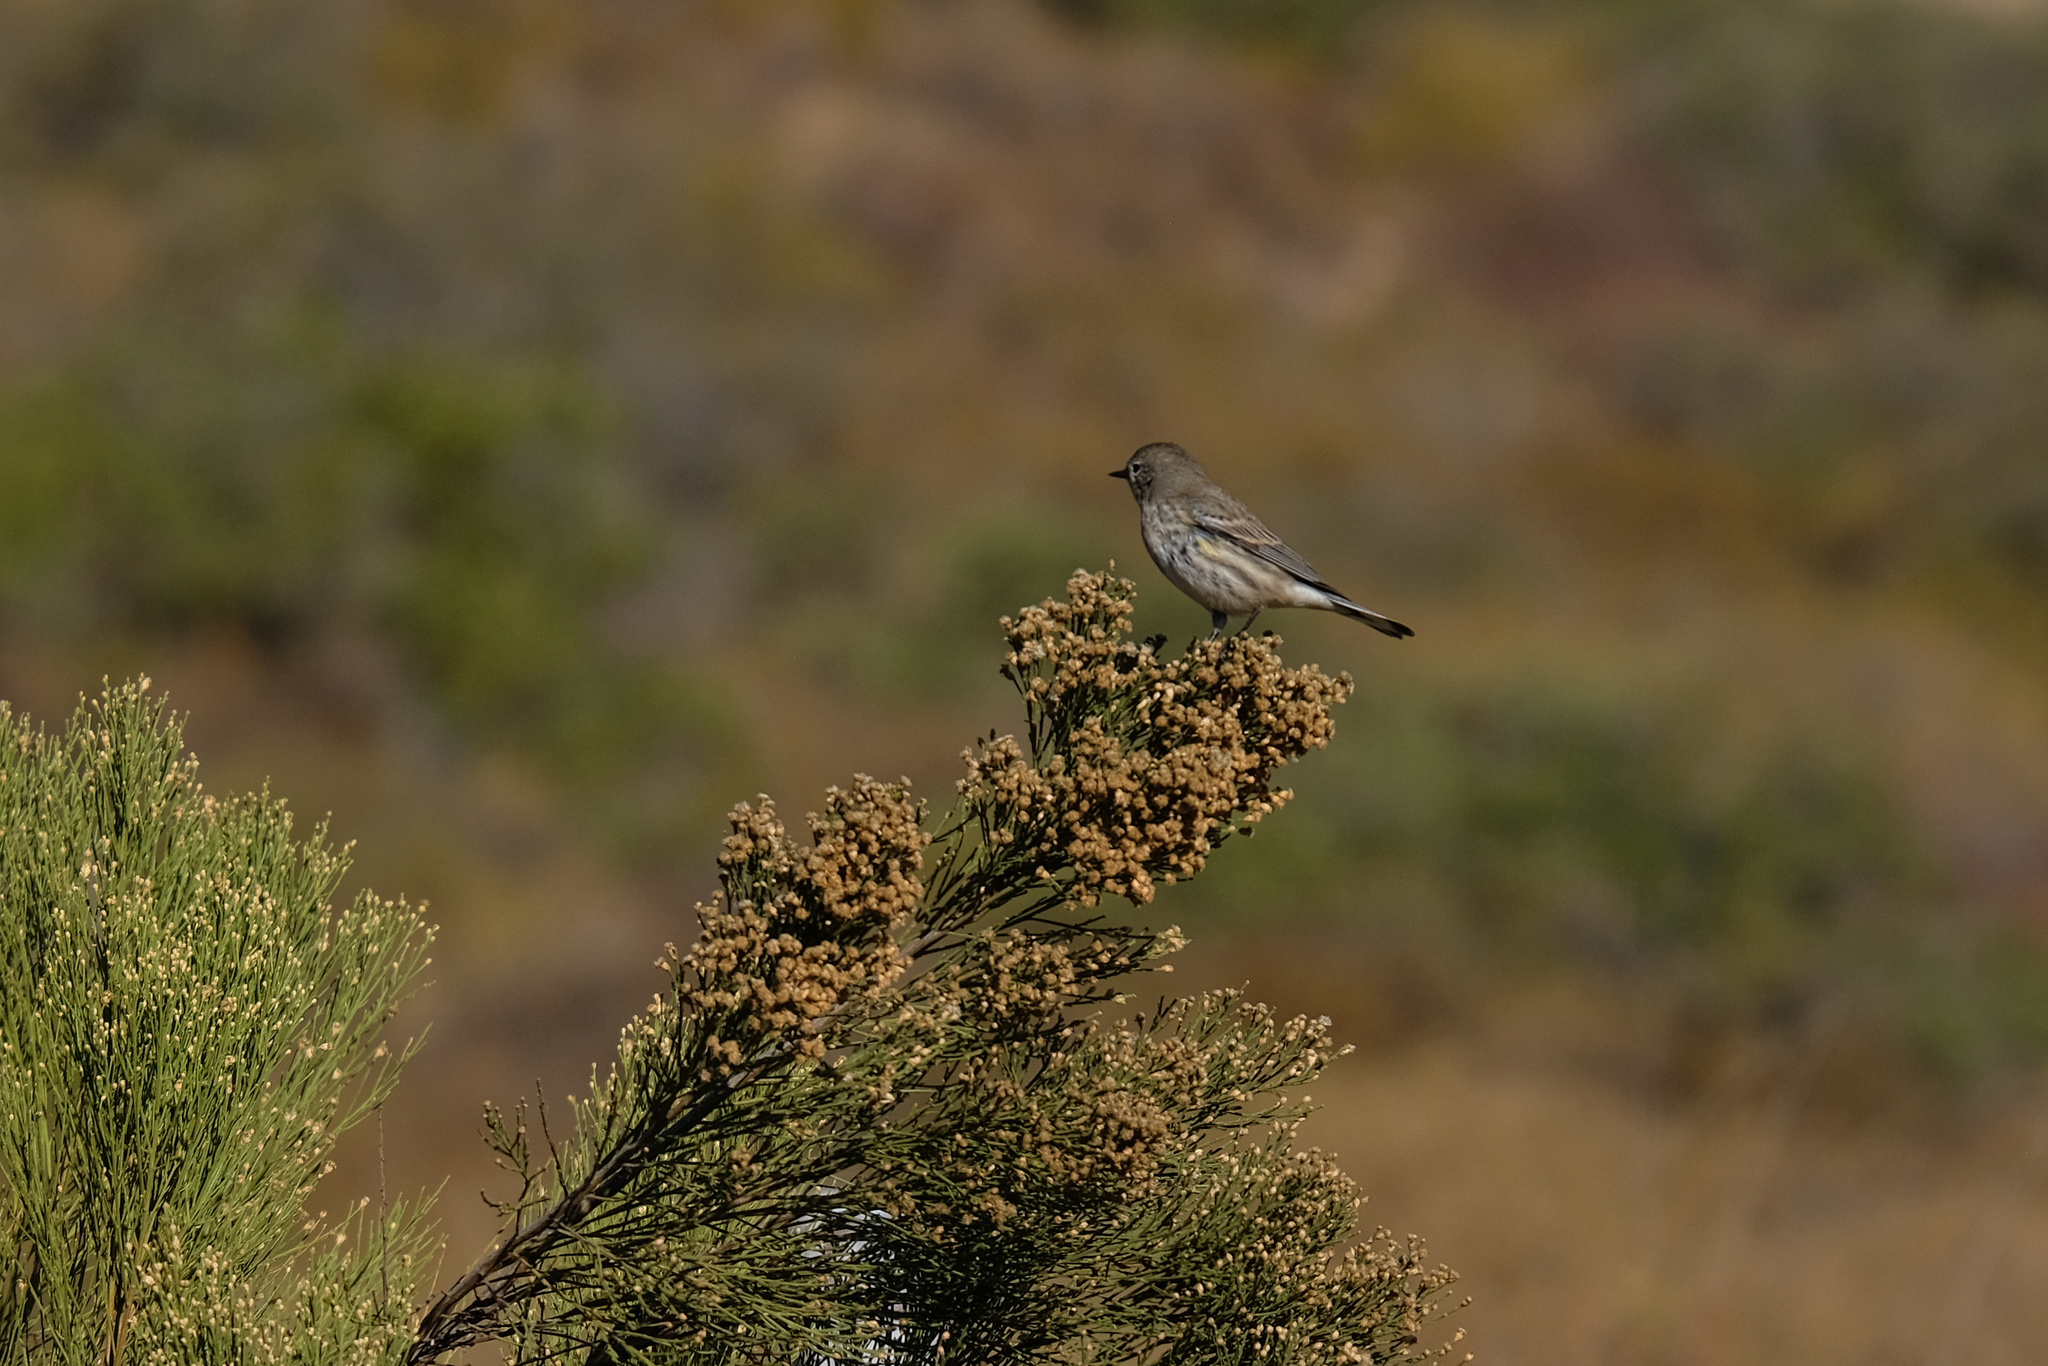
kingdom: Animalia
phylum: Chordata
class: Aves
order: Passeriformes
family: Parulidae
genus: Setophaga
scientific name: Setophaga coronata
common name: Myrtle warbler
